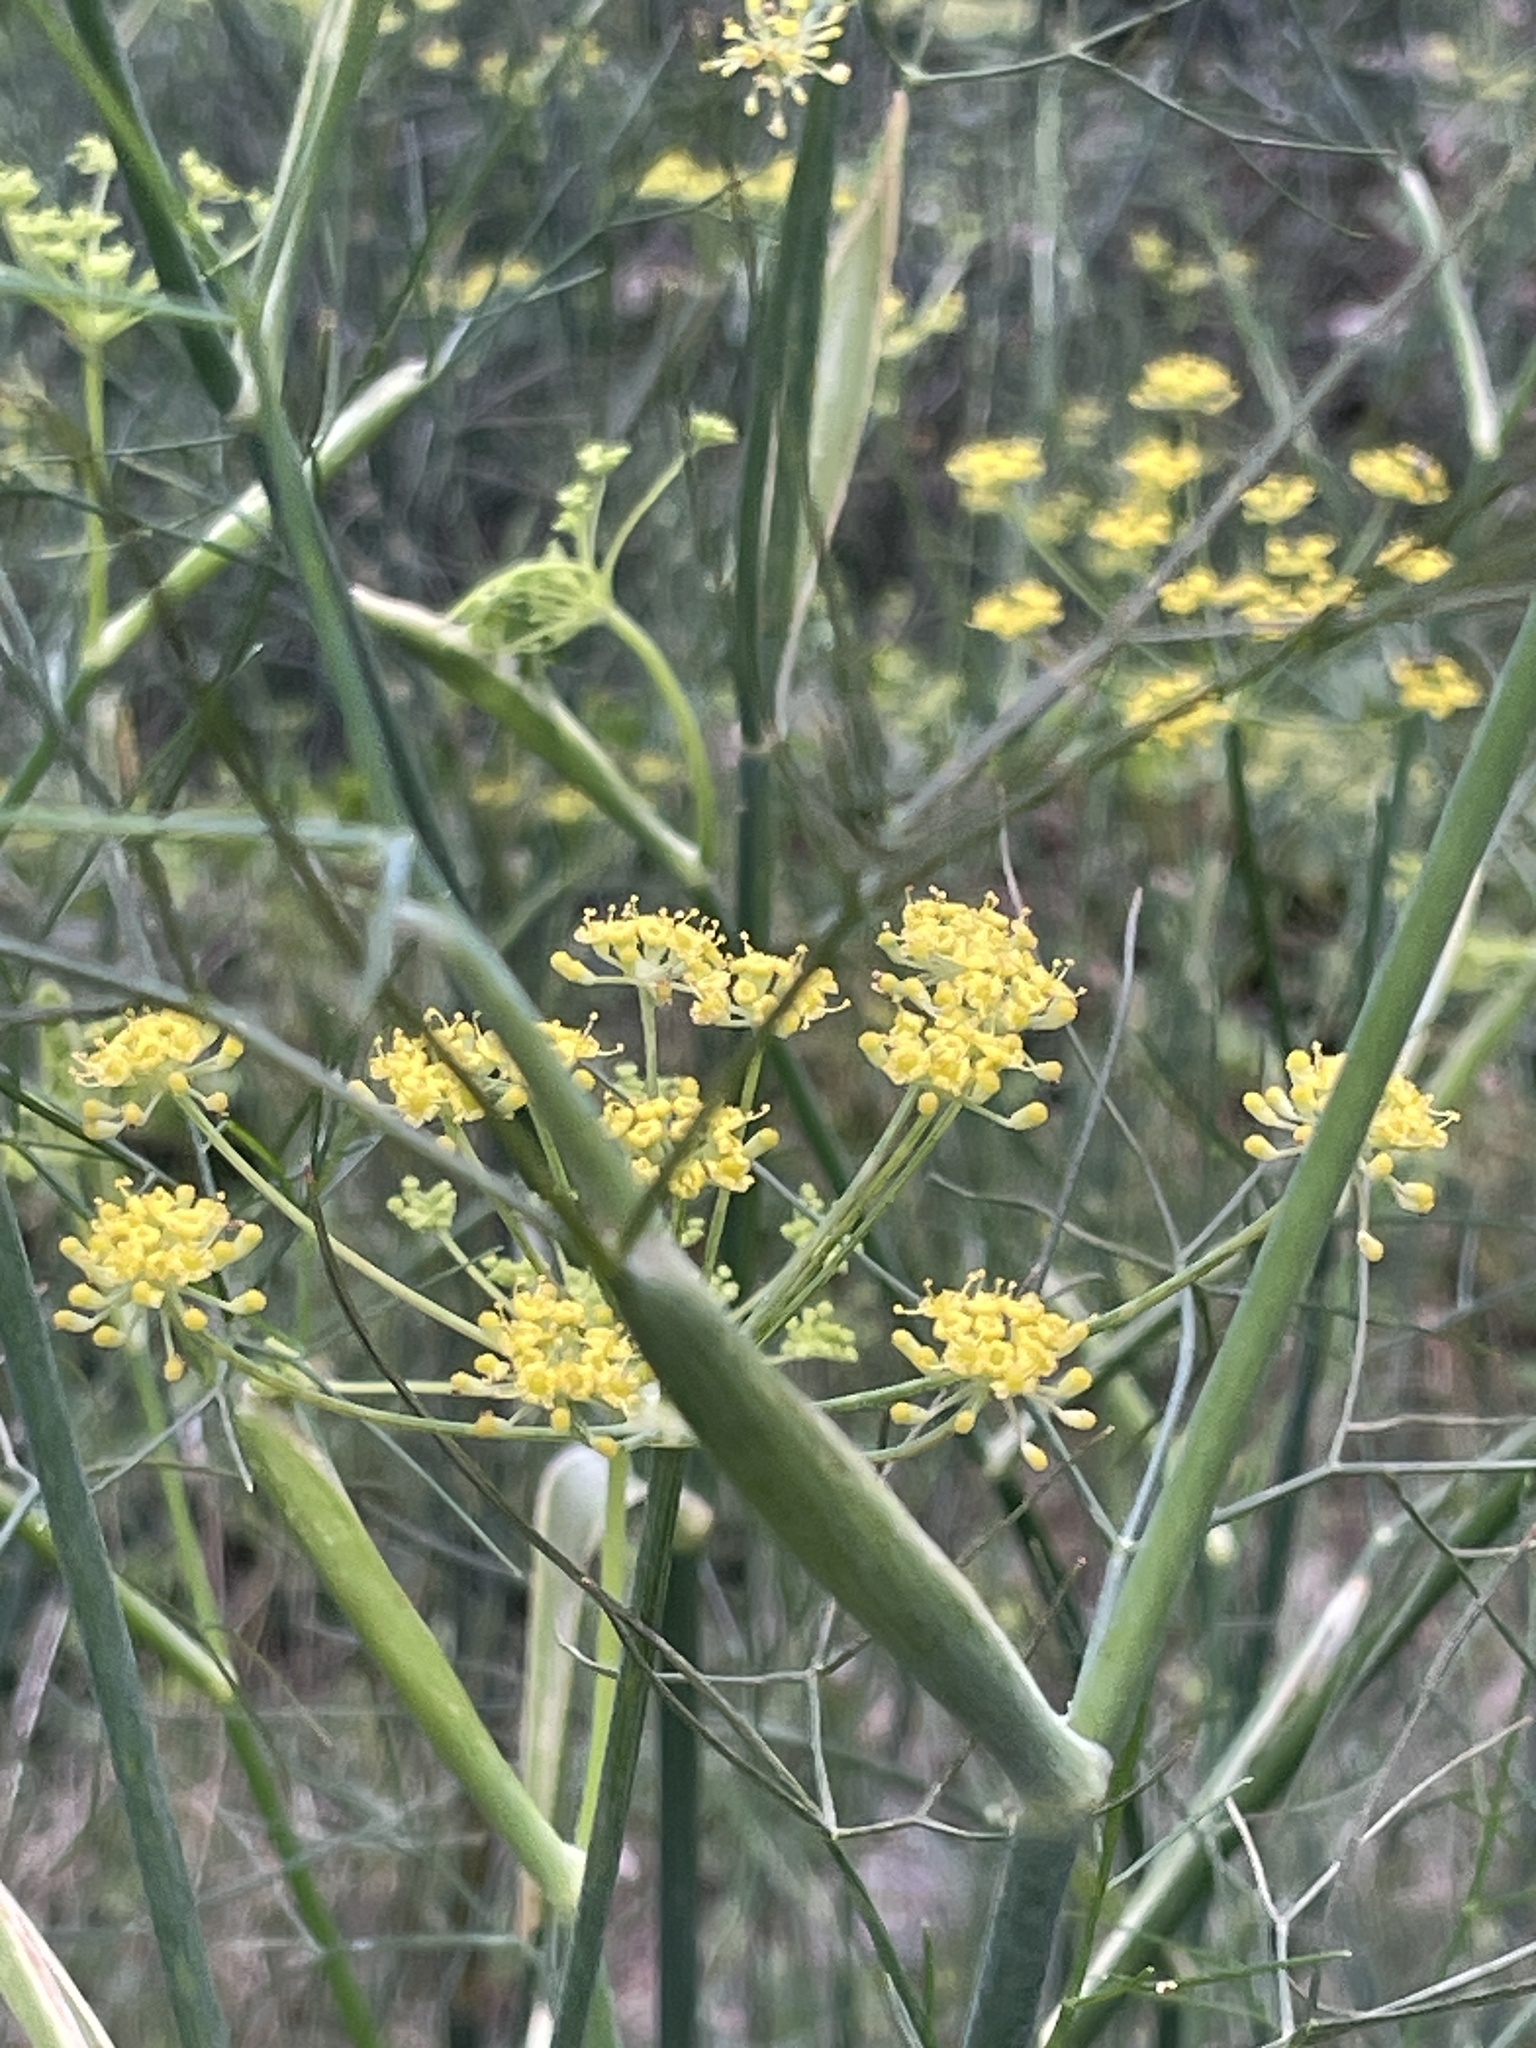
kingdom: Plantae
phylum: Tracheophyta
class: Magnoliopsida
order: Apiales
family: Apiaceae
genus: Foeniculum
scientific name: Foeniculum vulgare
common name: Fennel
